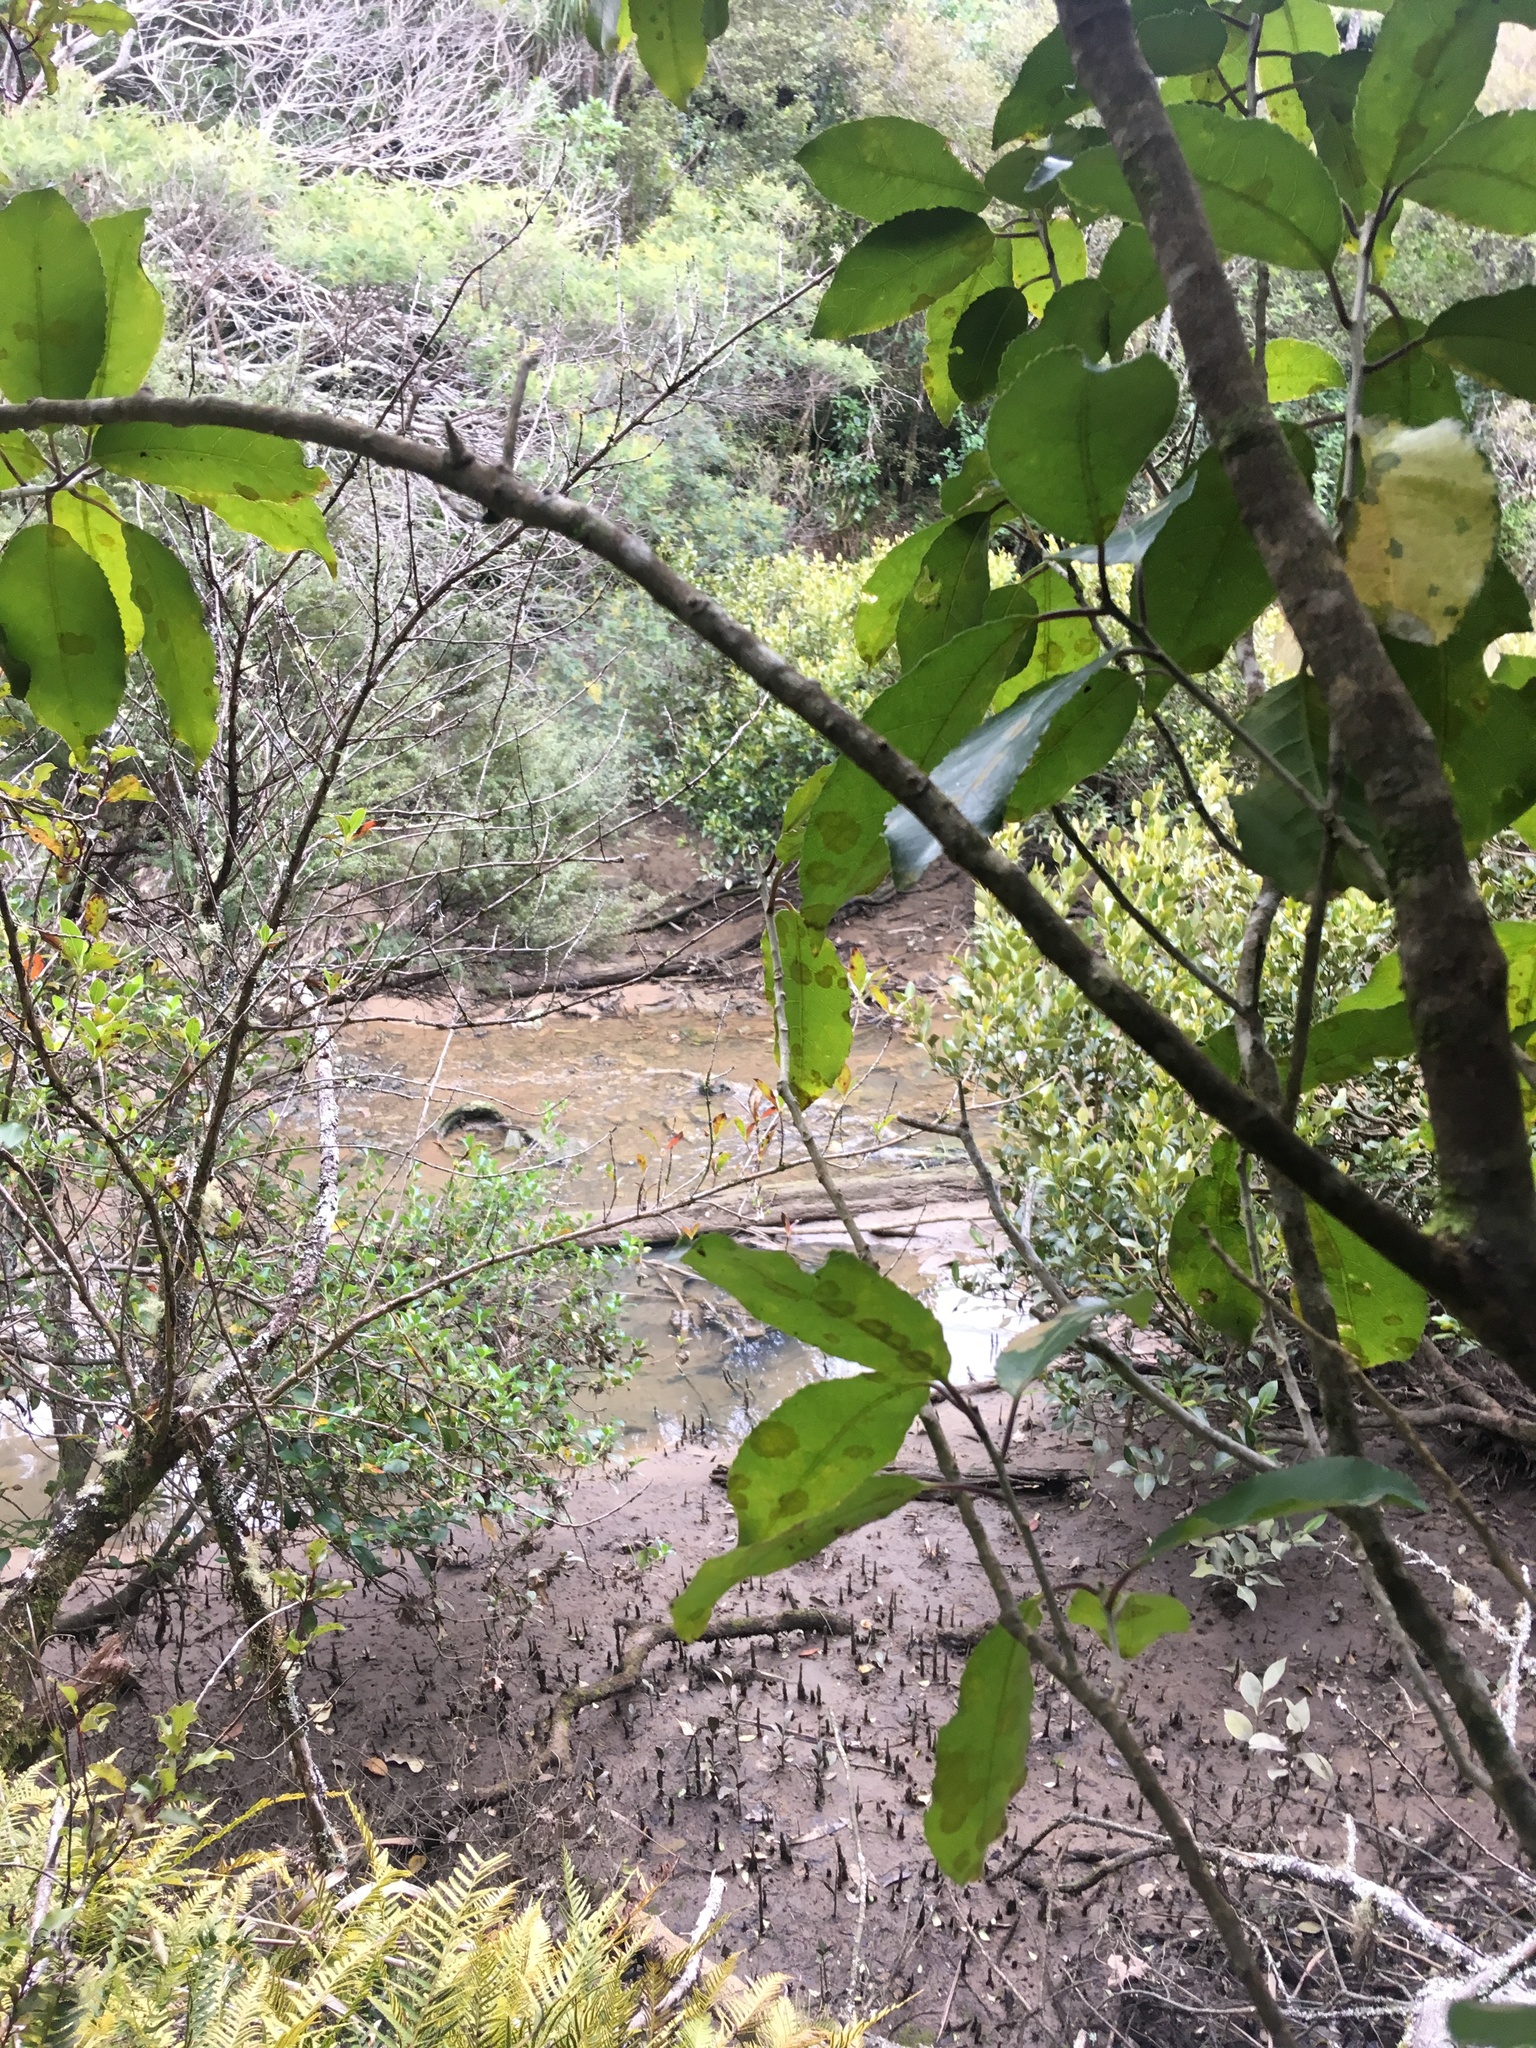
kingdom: Plantae
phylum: Tracheophyta
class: Magnoliopsida
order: Lamiales
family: Acanthaceae
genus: Avicennia
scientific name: Avicennia marina
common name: Gray mangrove
